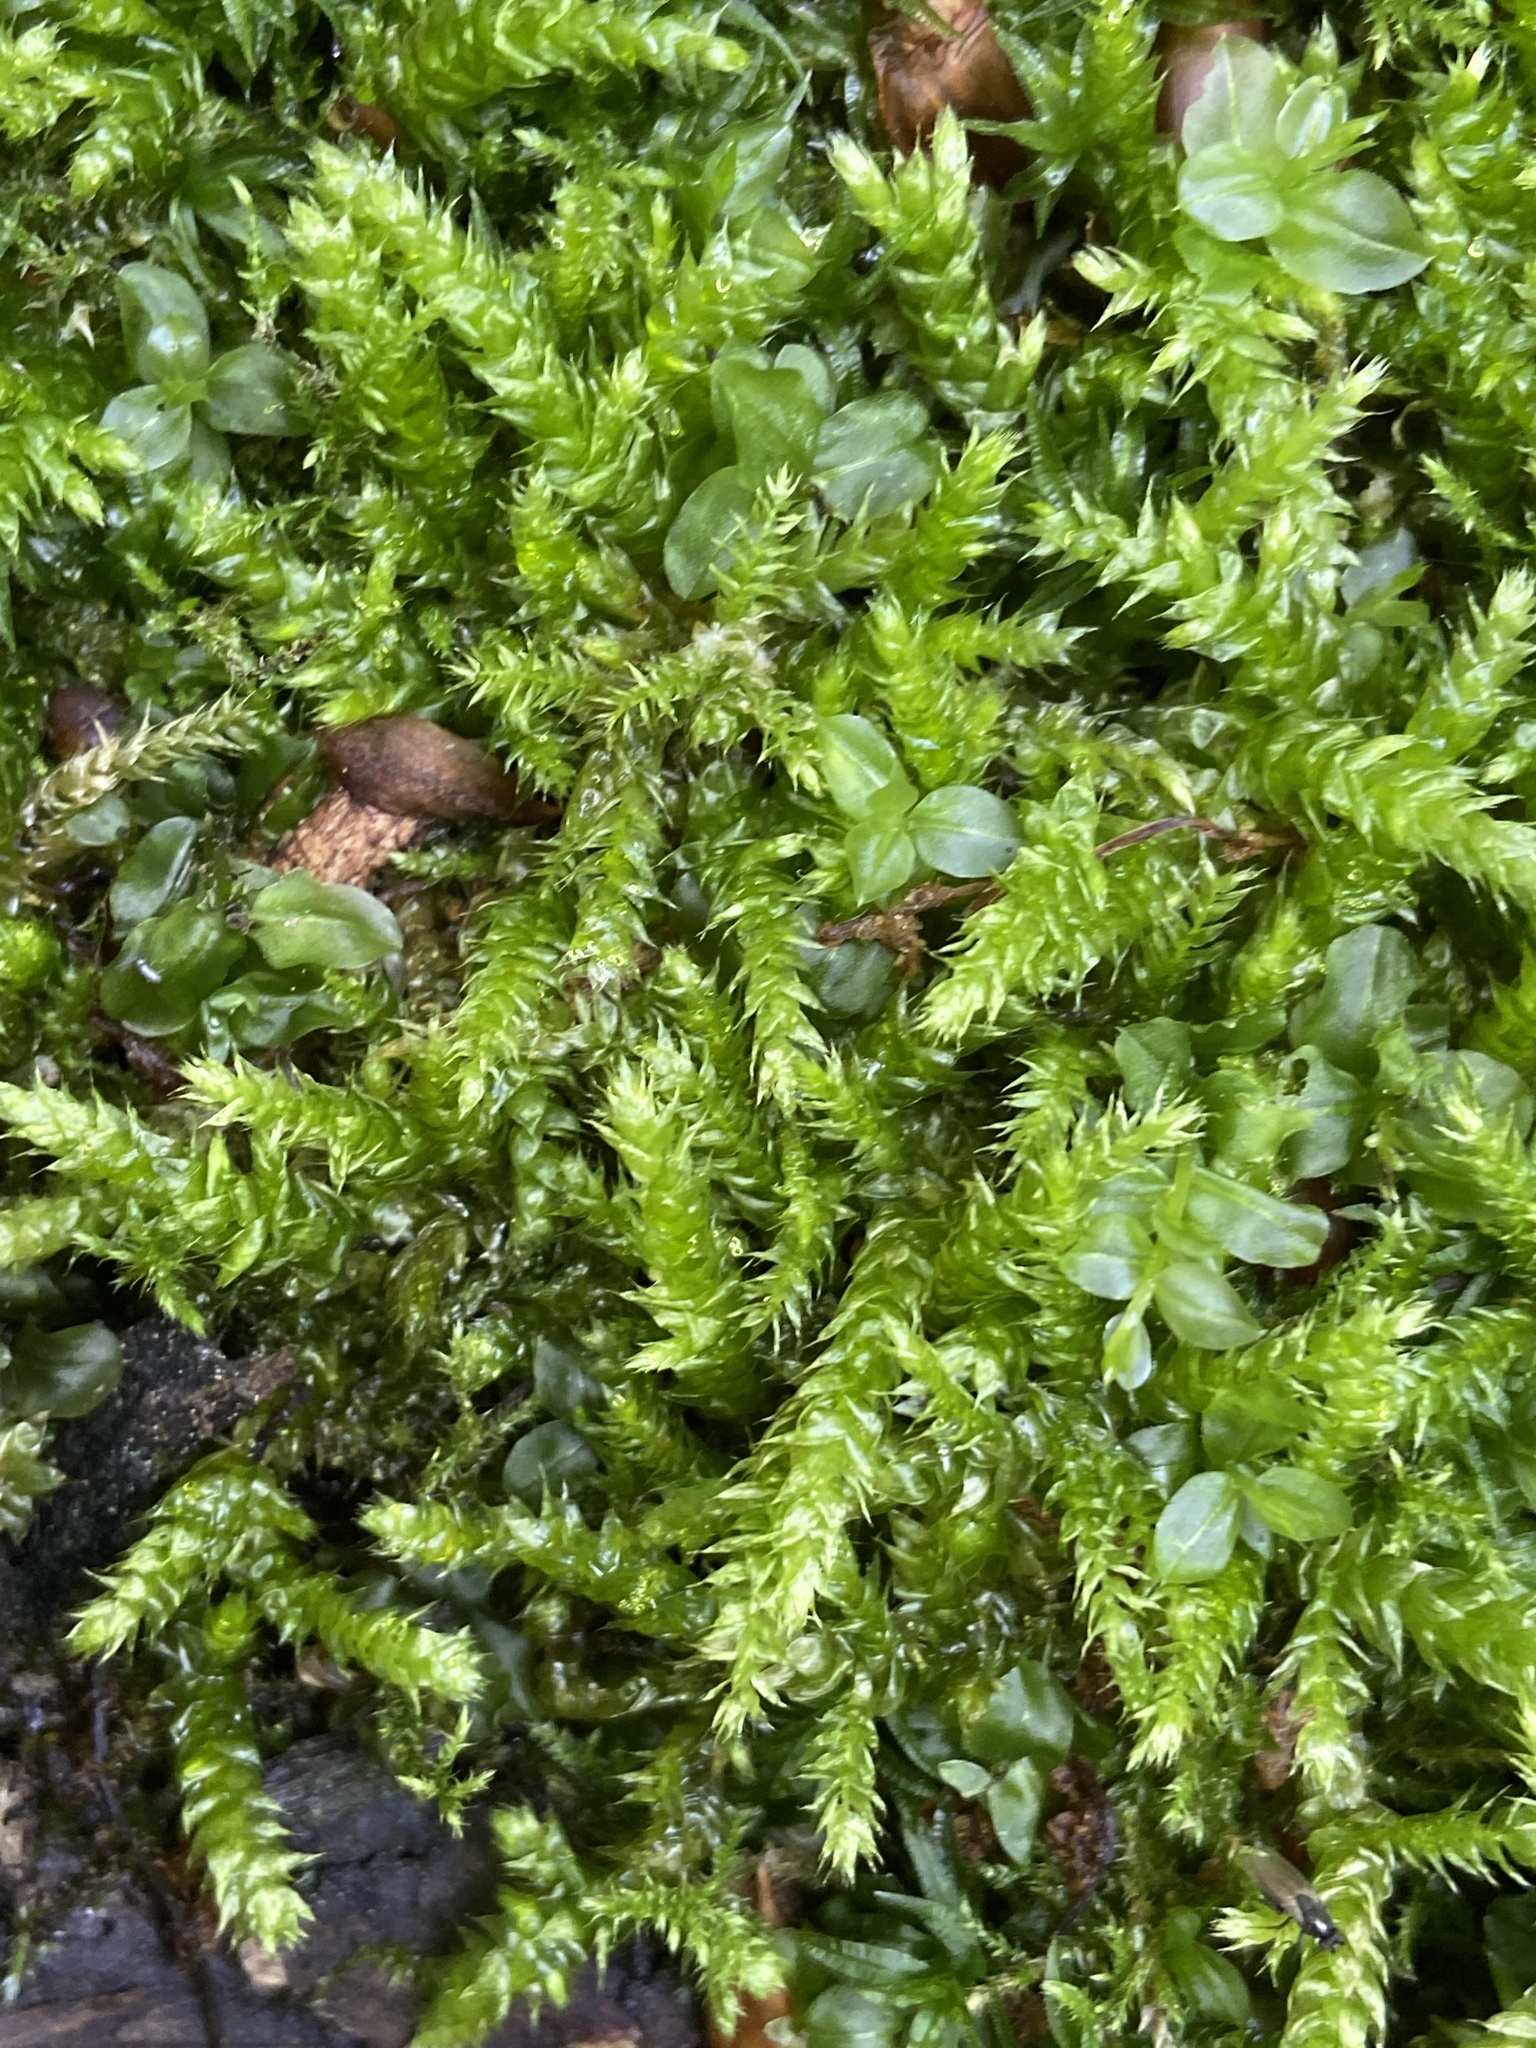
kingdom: Plantae
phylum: Bryophyta
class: Bryopsida
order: Hypnales
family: Brachytheciaceae
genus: Brachythecium
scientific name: Brachythecium rutabulum
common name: Rough-stalked feather-moss
